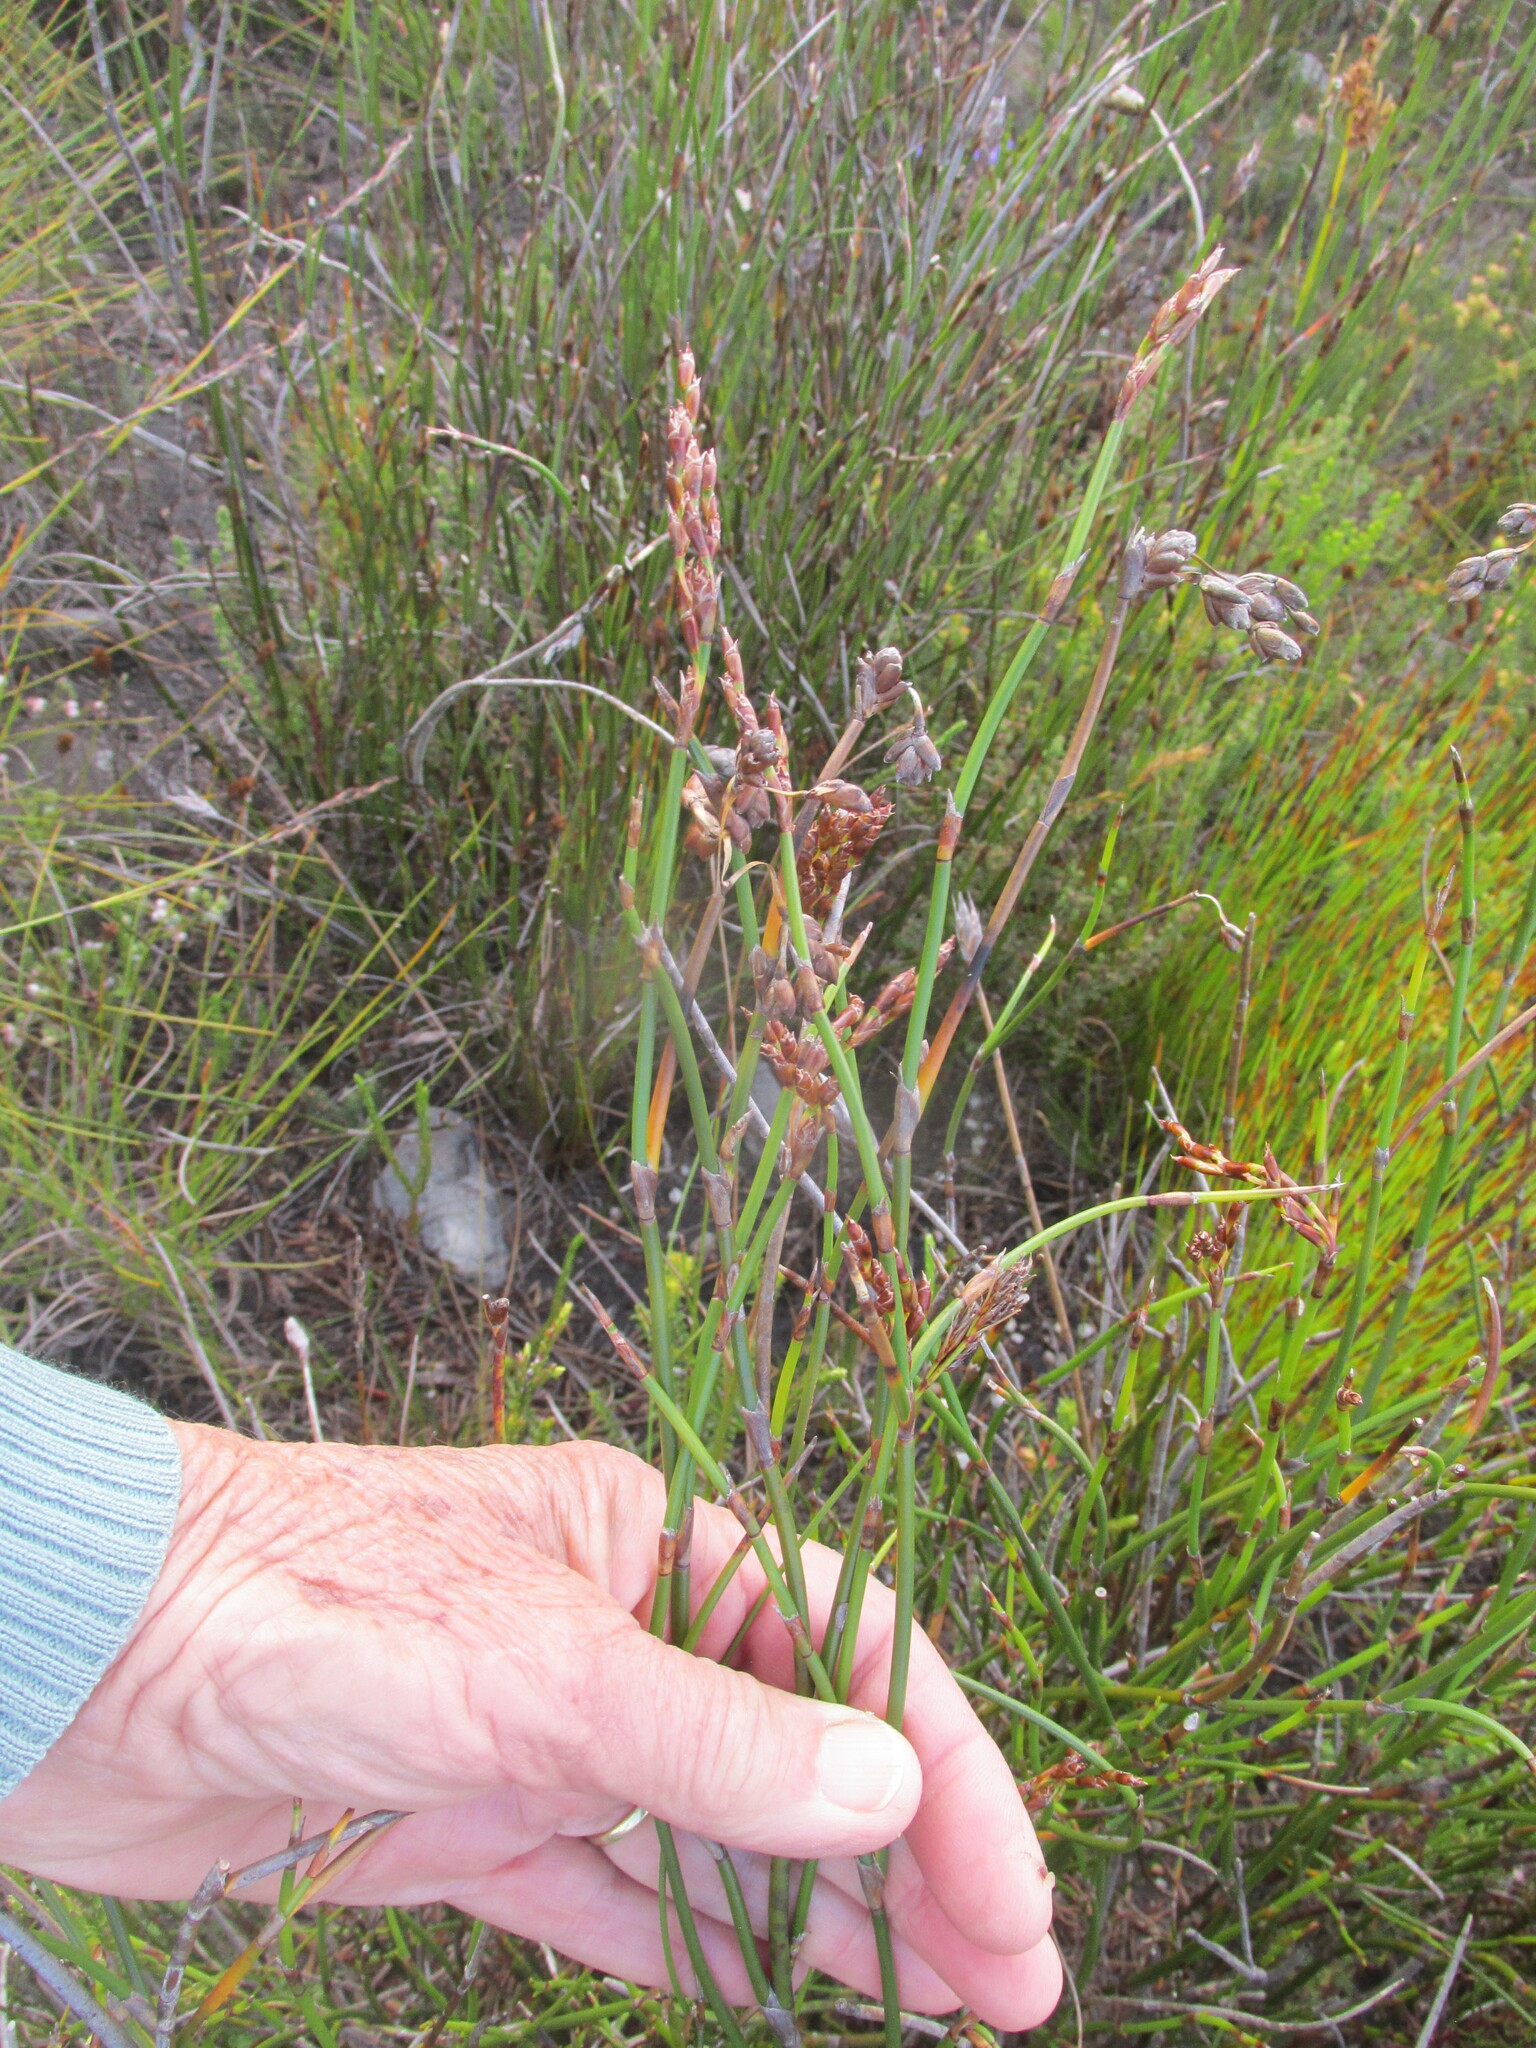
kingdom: Plantae
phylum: Tracheophyta
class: Liliopsida
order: Poales
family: Restionaceae
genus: Restio
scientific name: Restio egregius
